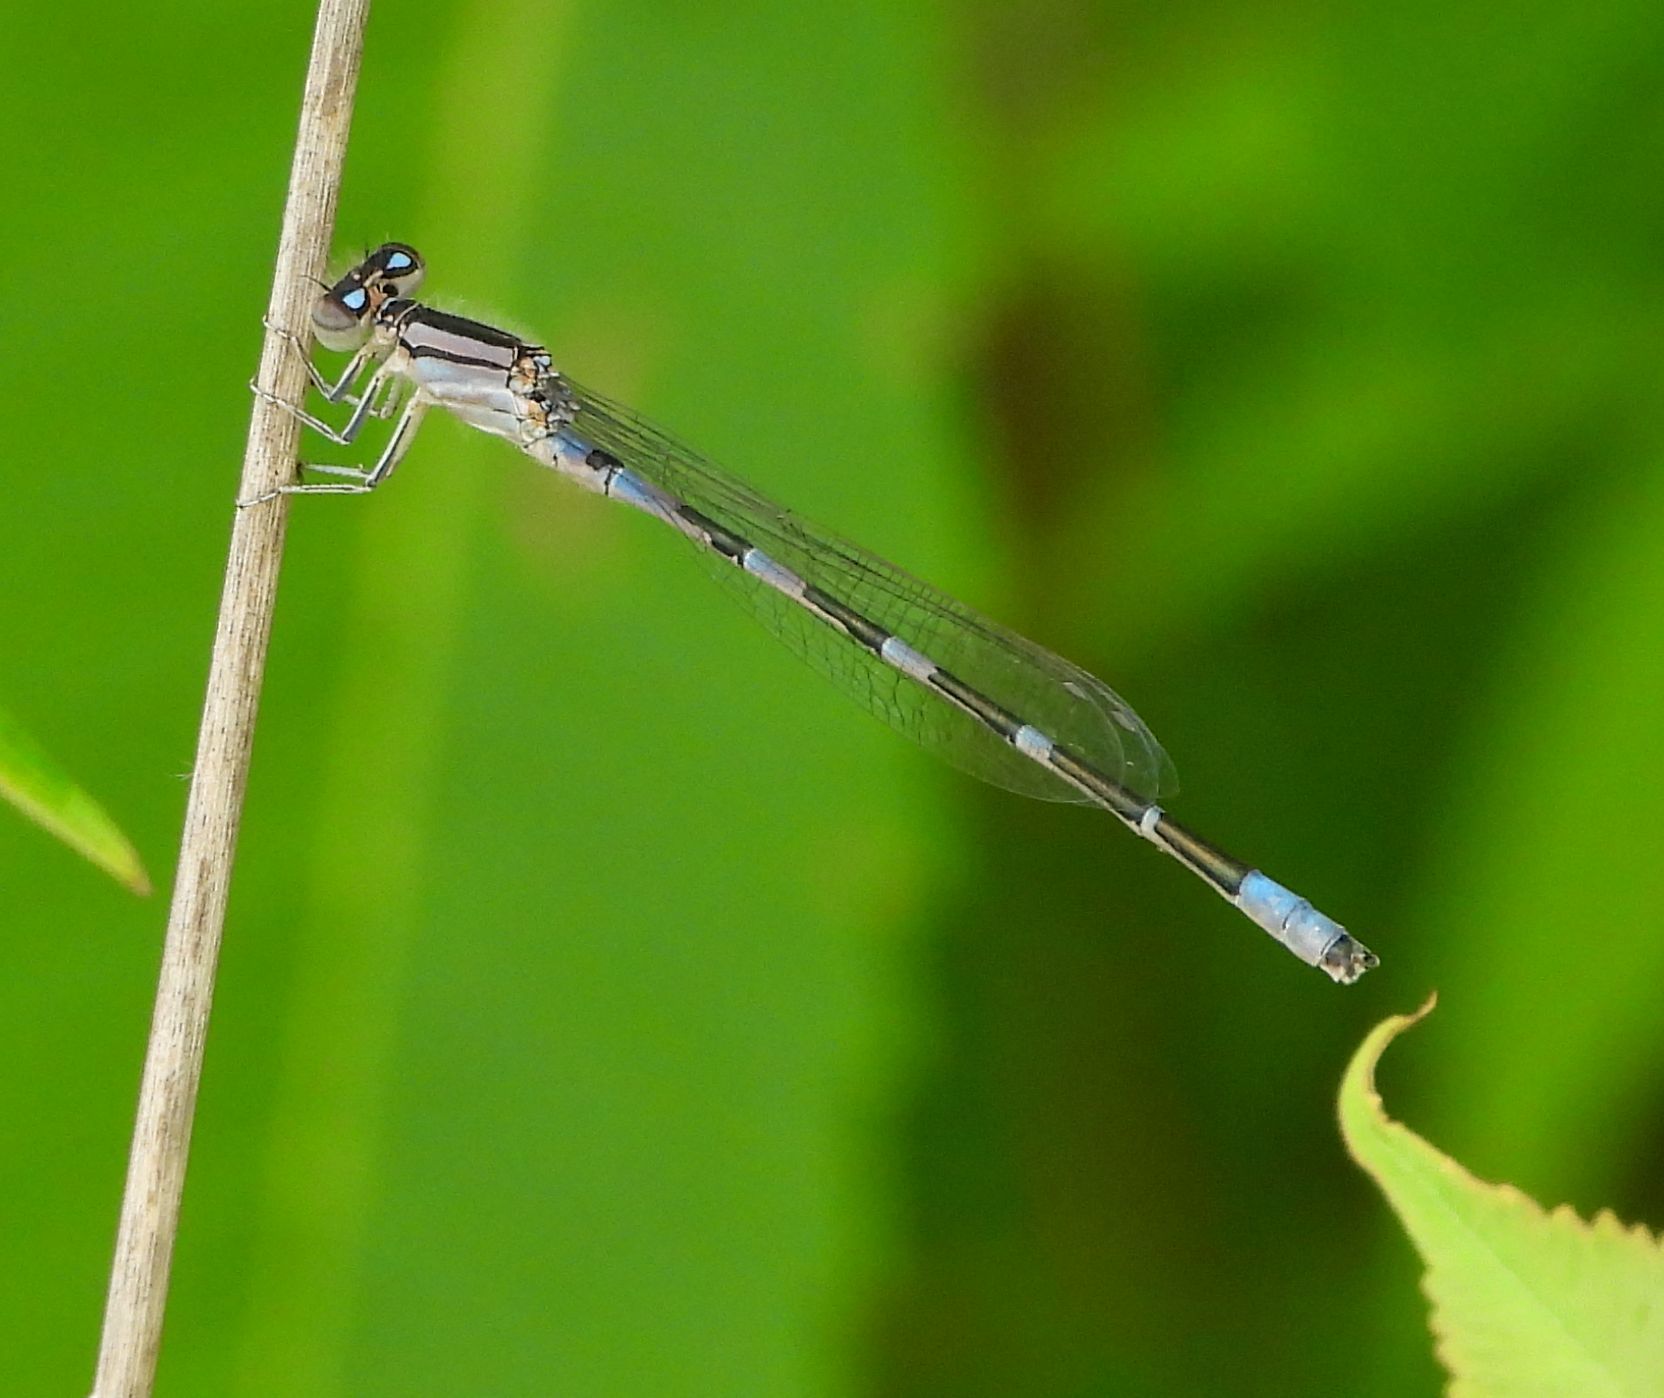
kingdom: Animalia
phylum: Arthropoda
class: Insecta
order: Odonata
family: Coenagrionidae
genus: Enallagma
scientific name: Enallagma carunculatum
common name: Tule bluet
